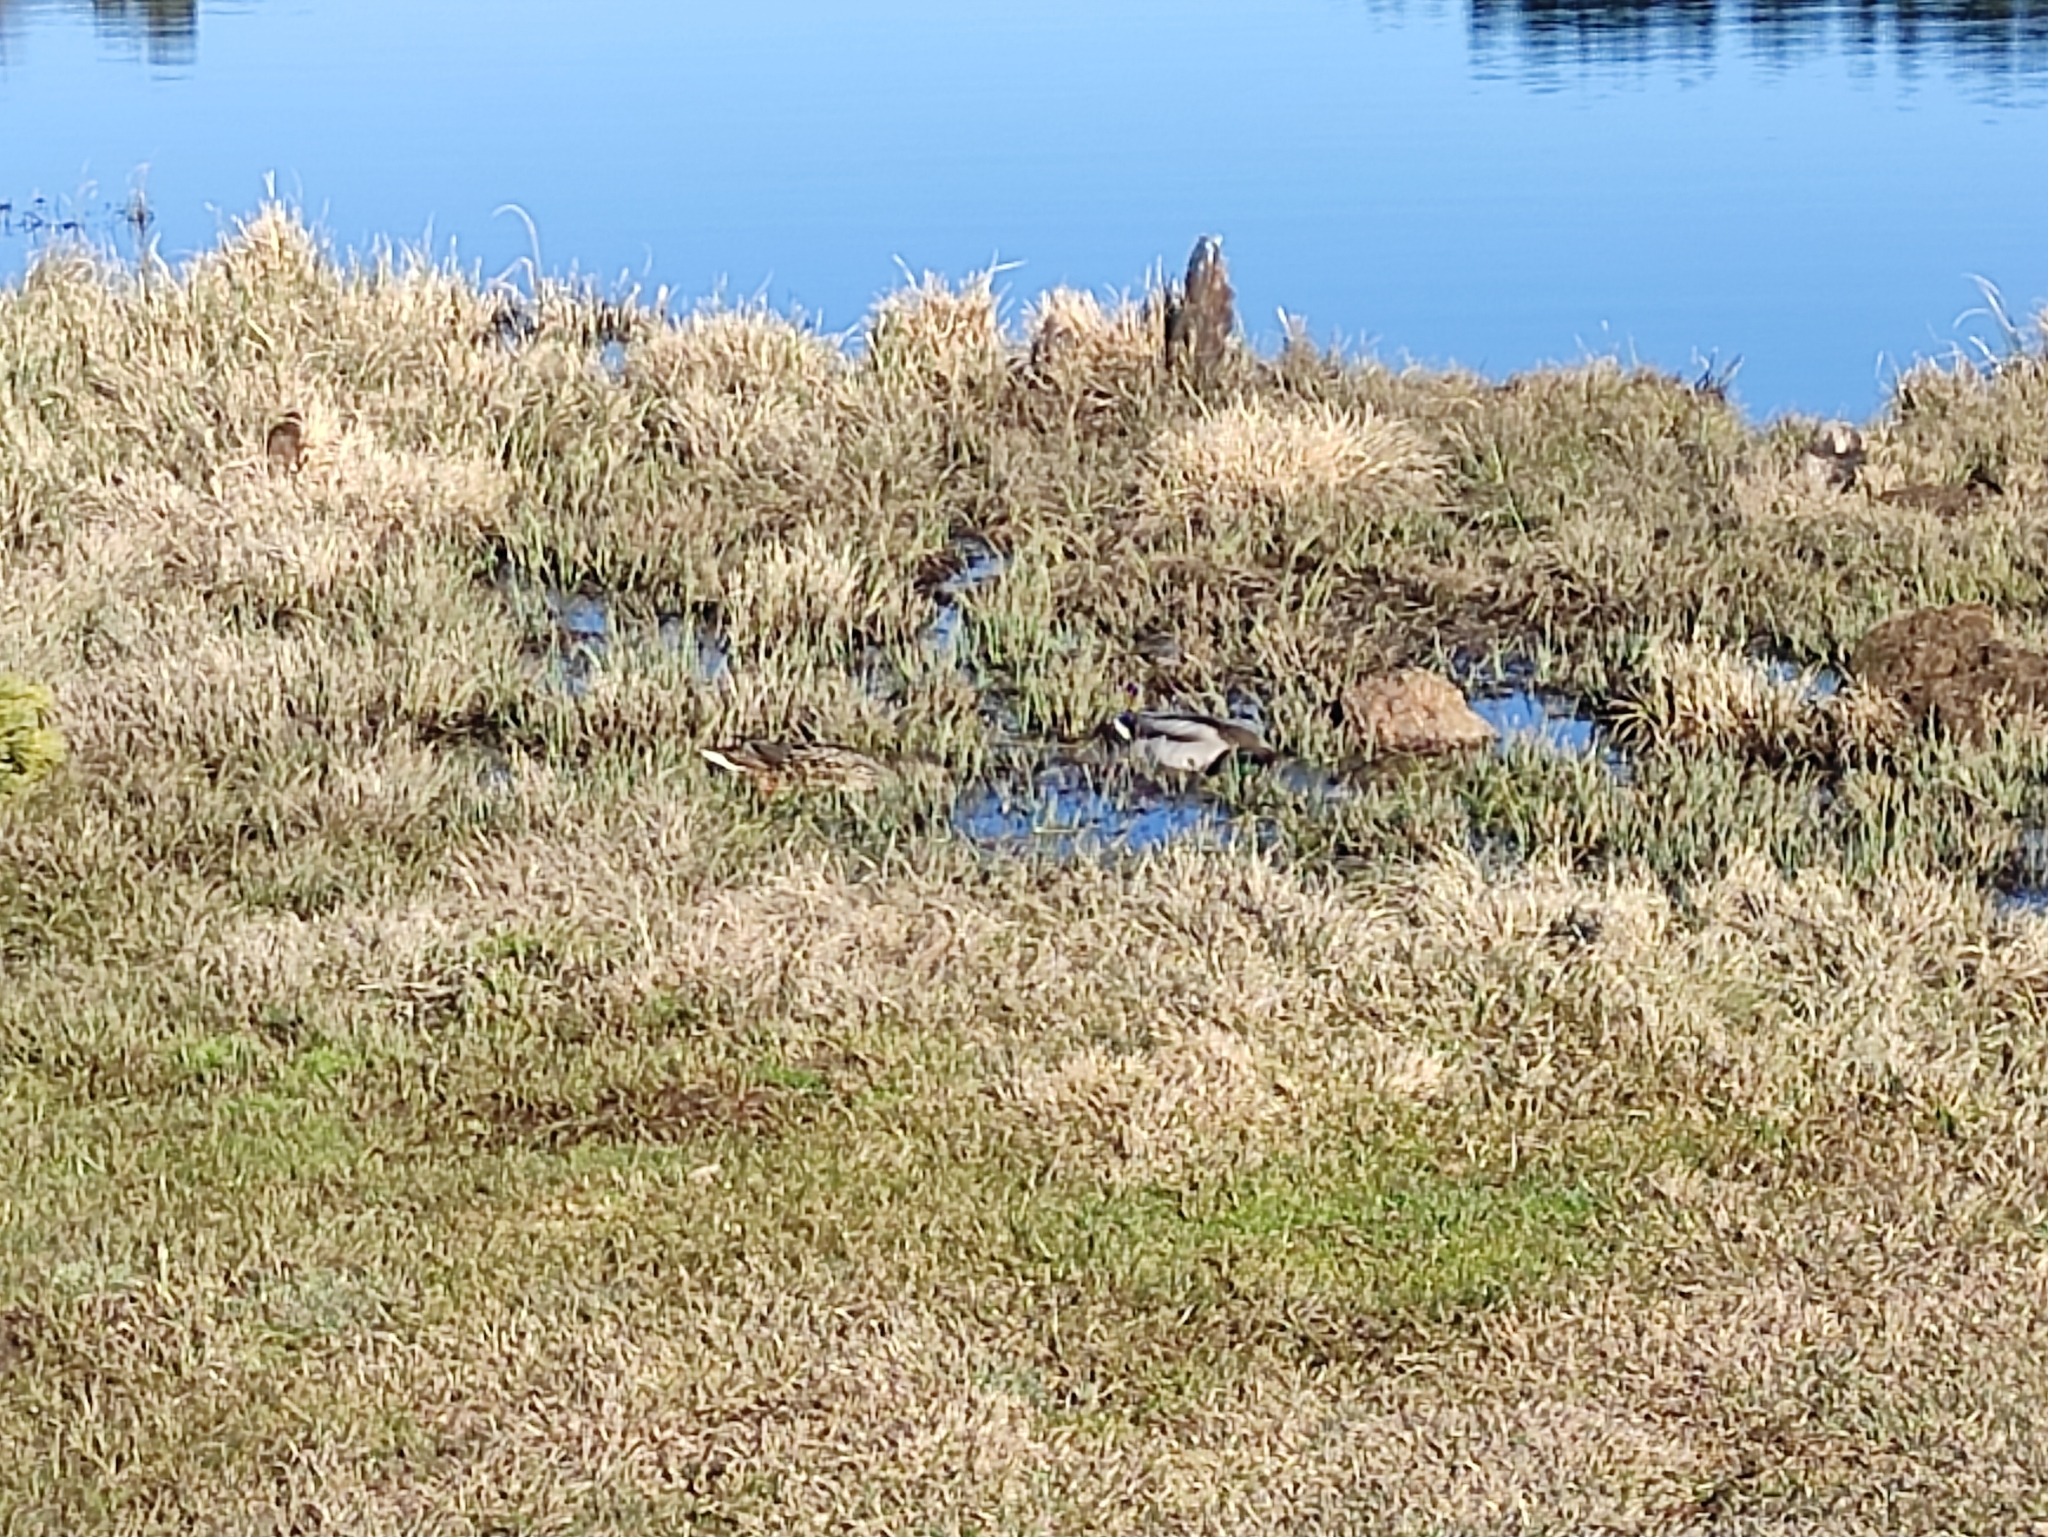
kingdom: Animalia
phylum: Chordata
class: Aves
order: Anseriformes
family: Anatidae
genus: Anas
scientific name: Anas platyrhynchos
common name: Mallard
